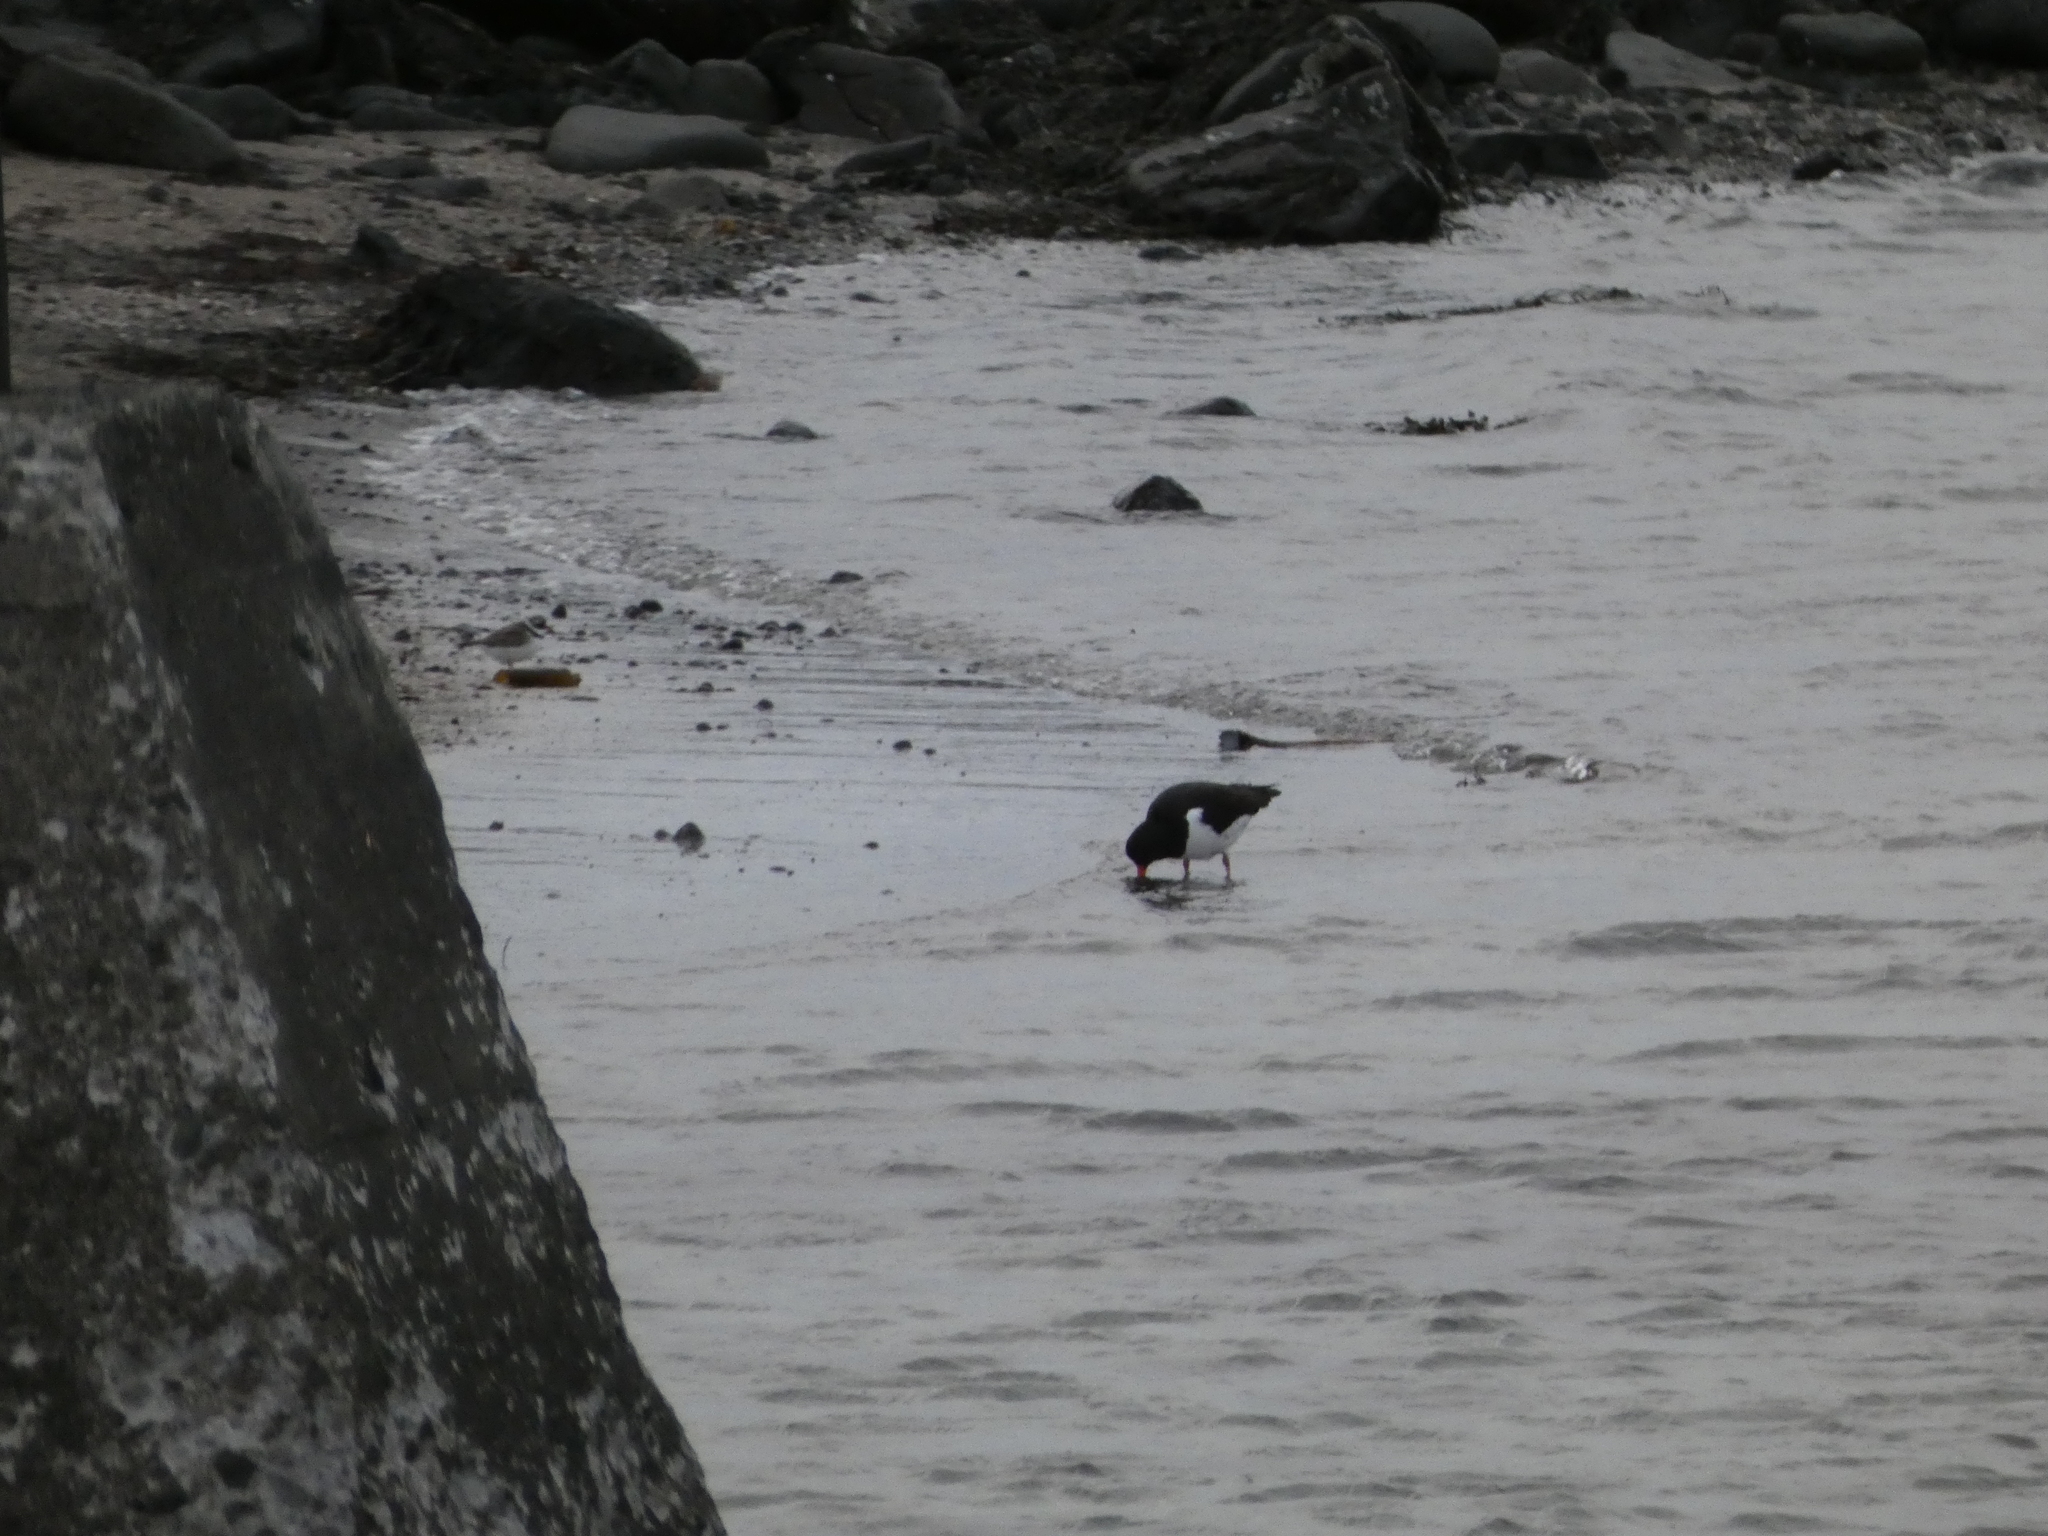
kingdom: Animalia
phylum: Chordata
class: Aves
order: Charadriiformes
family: Haematopodidae
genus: Haematopus
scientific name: Haematopus ostralegus
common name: Eurasian oystercatcher
